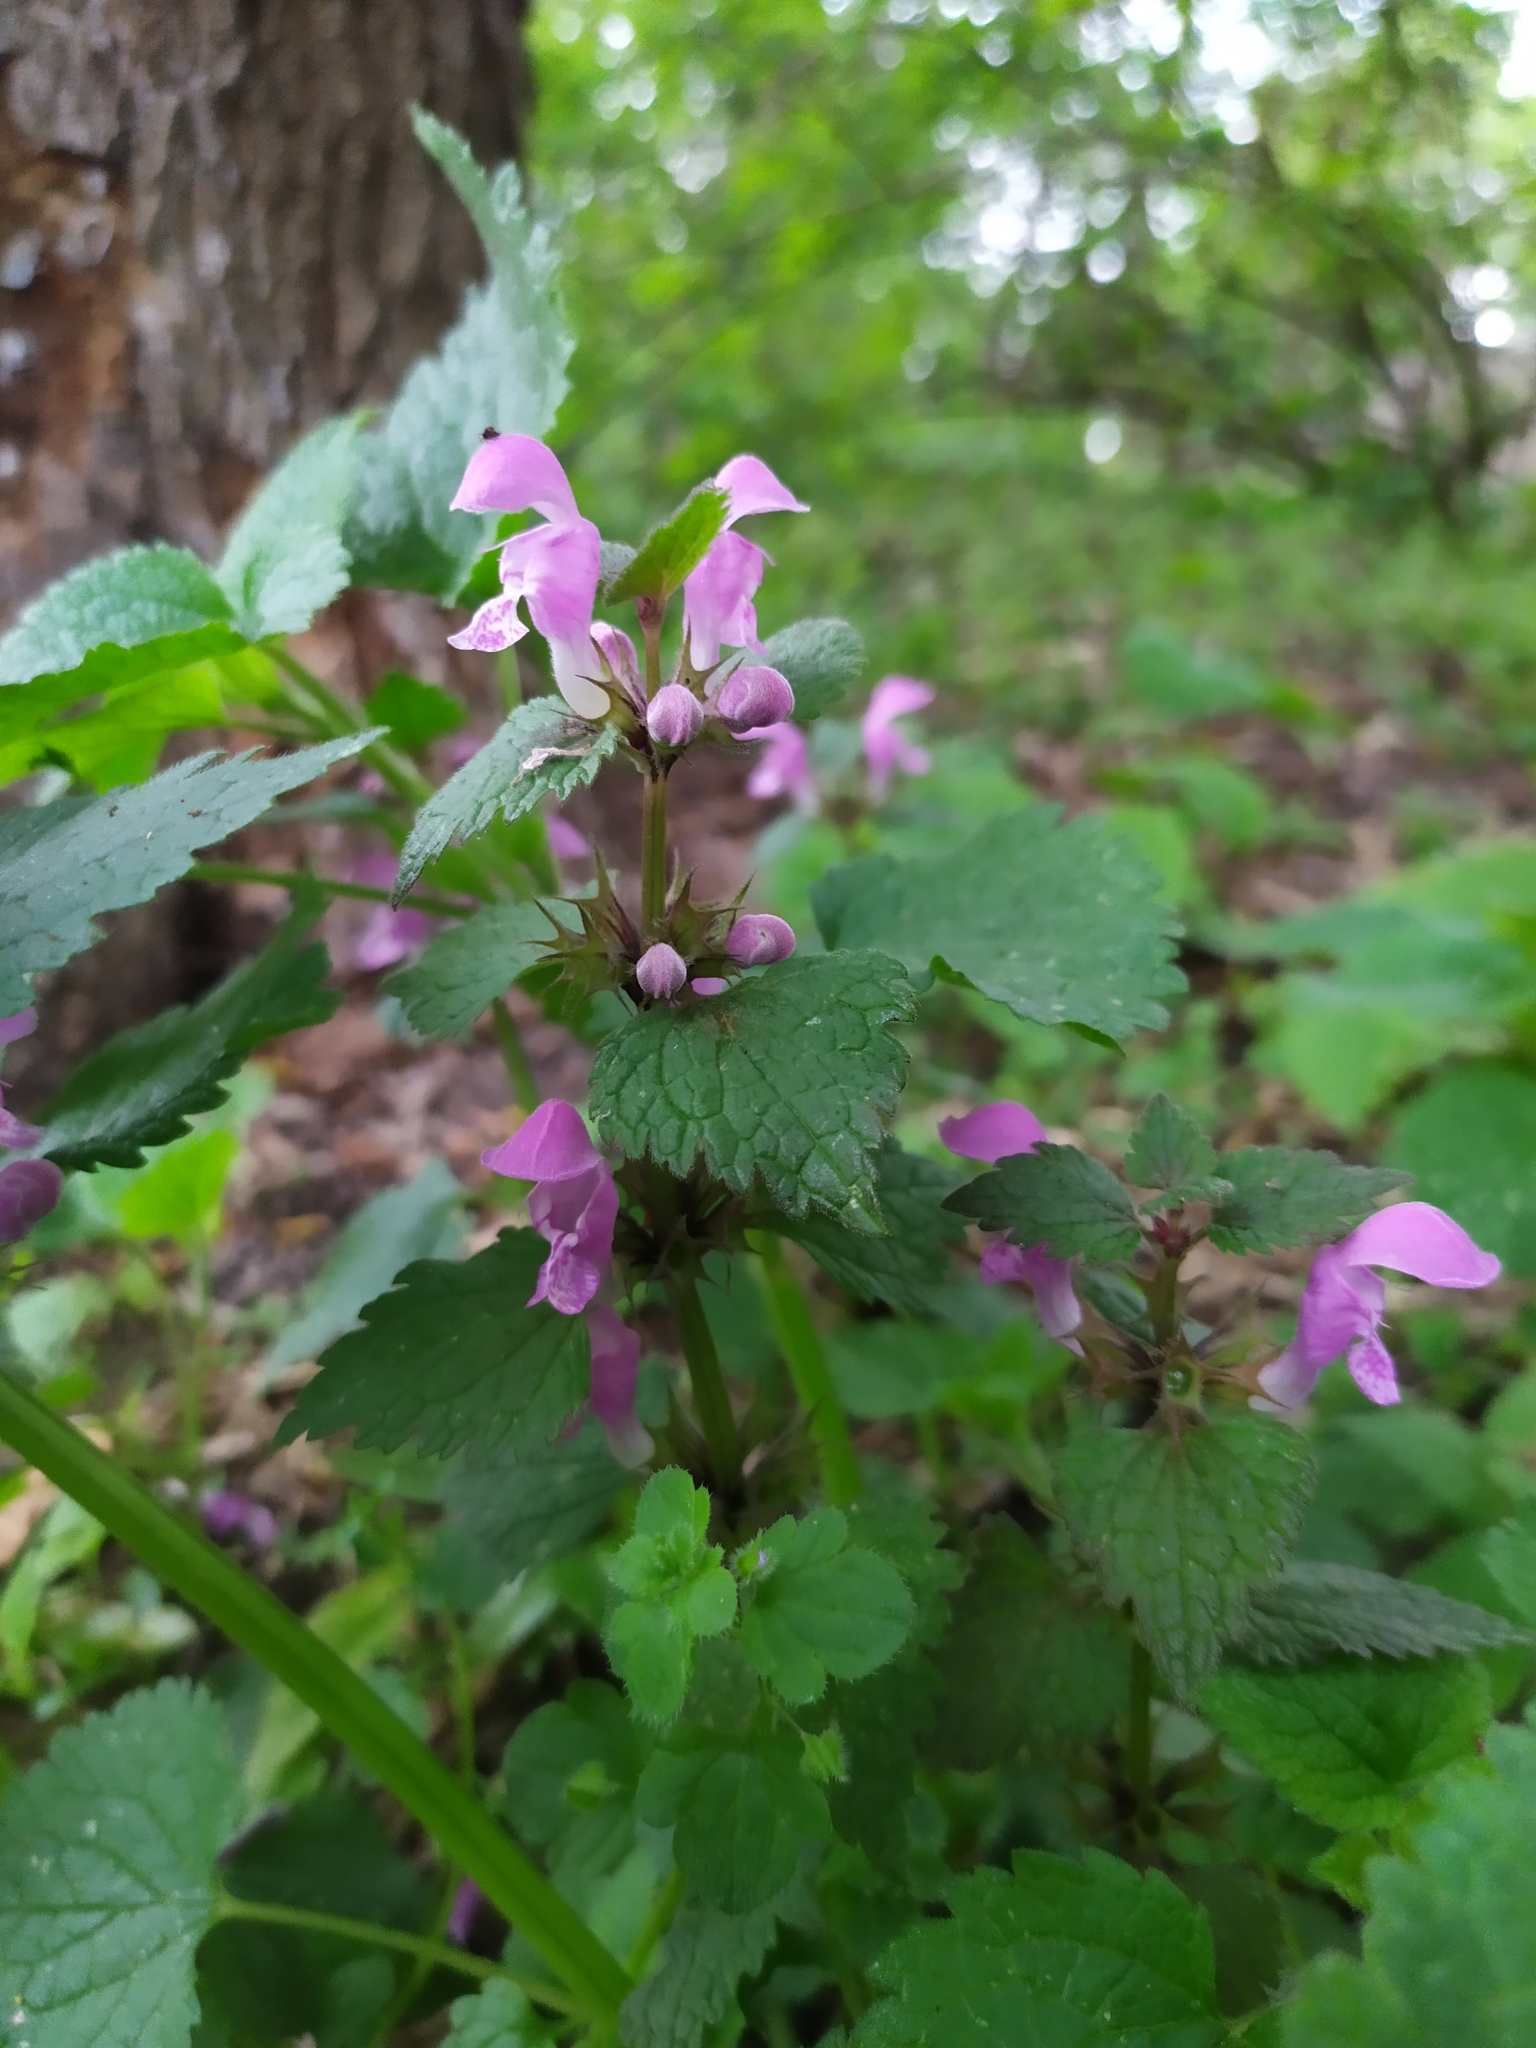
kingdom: Plantae
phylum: Tracheophyta
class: Magnoliopsida
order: Lamiales
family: Lamiaceae
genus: Lamium
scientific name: Lamium maculatum
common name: Spotted dead-nettle
